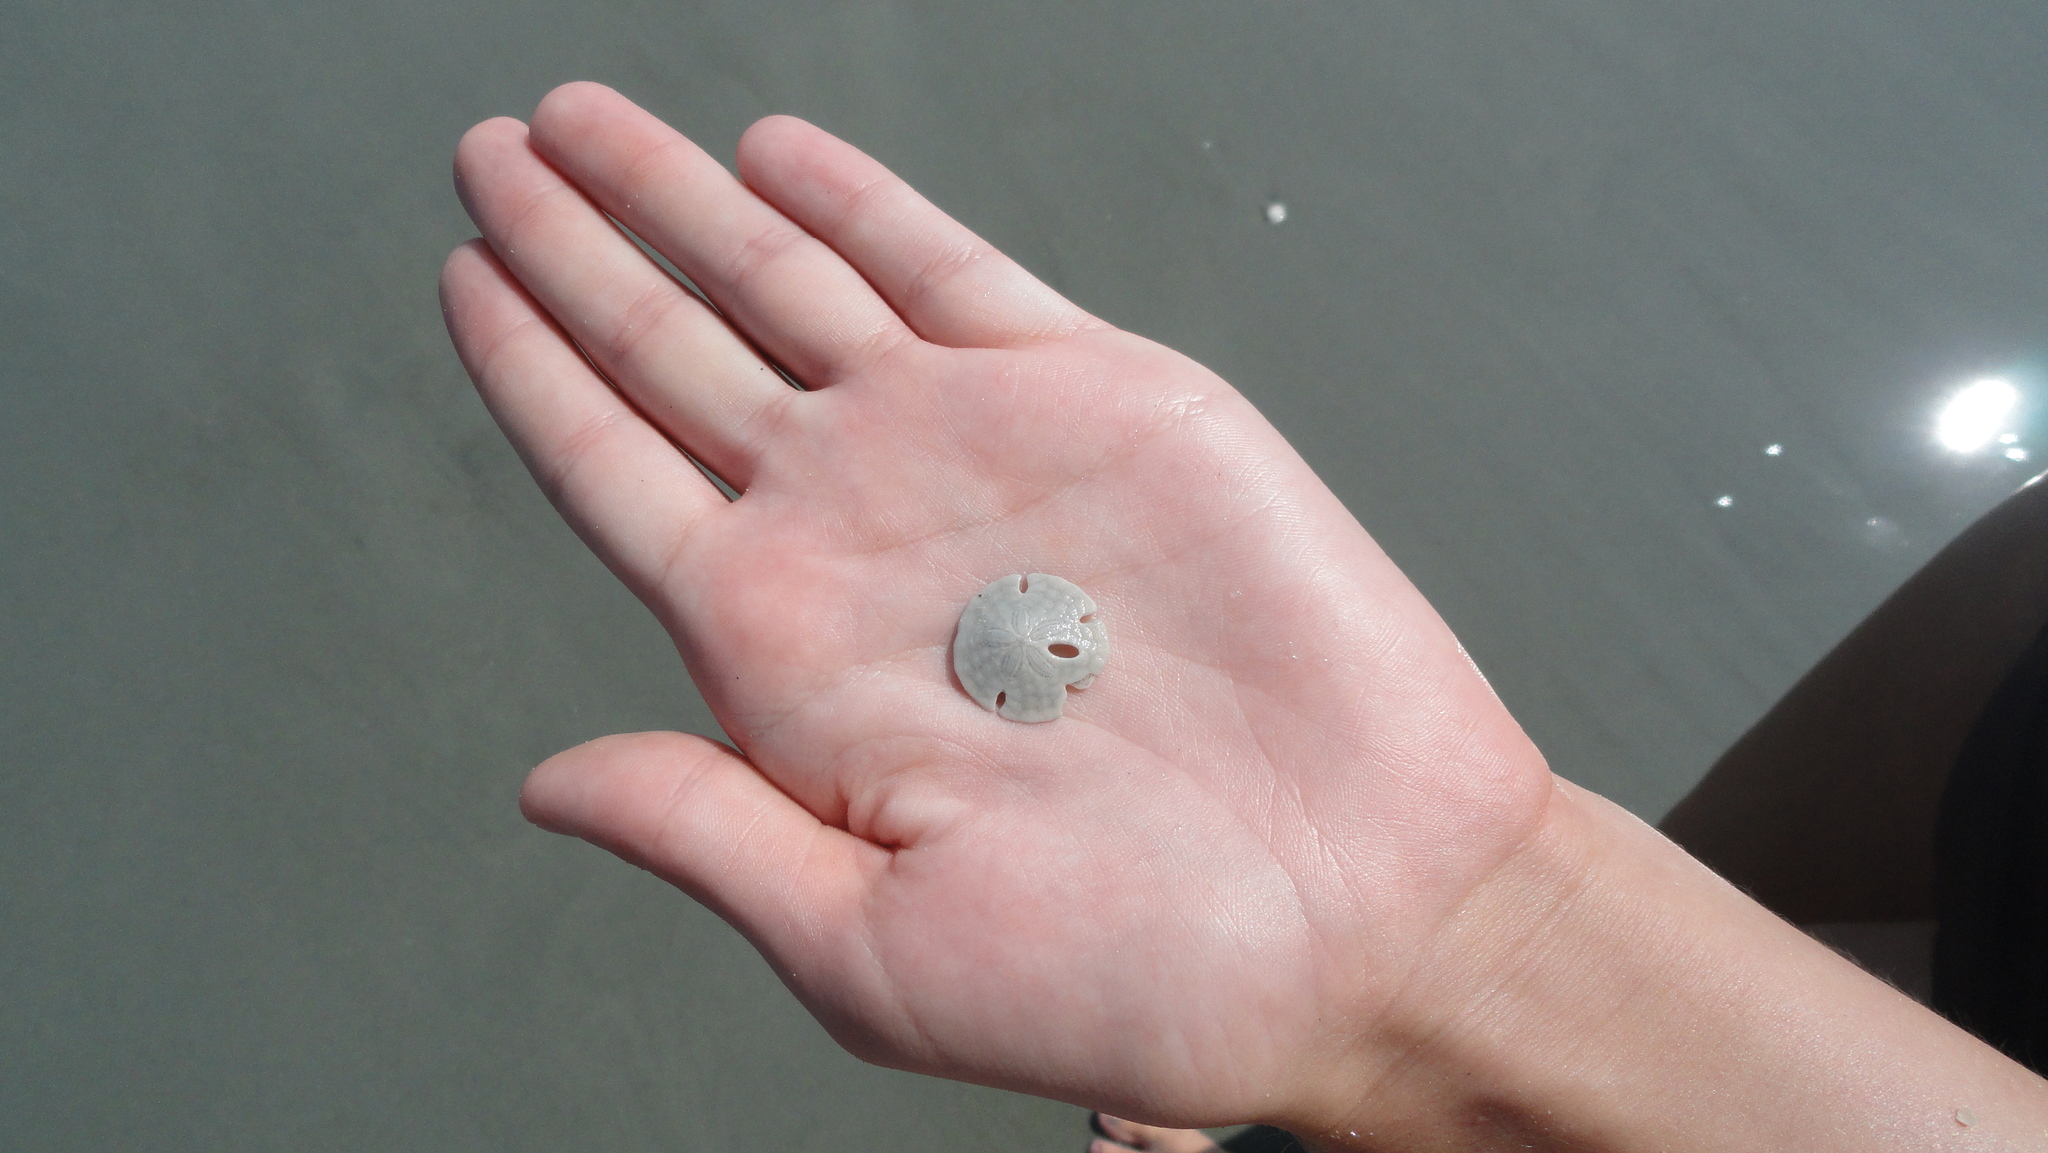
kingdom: Animalia
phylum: Echinodermata
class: Echinoidea
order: Echinolampadacea
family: Mellitidae
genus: Mellita
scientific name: Mellita isometra
